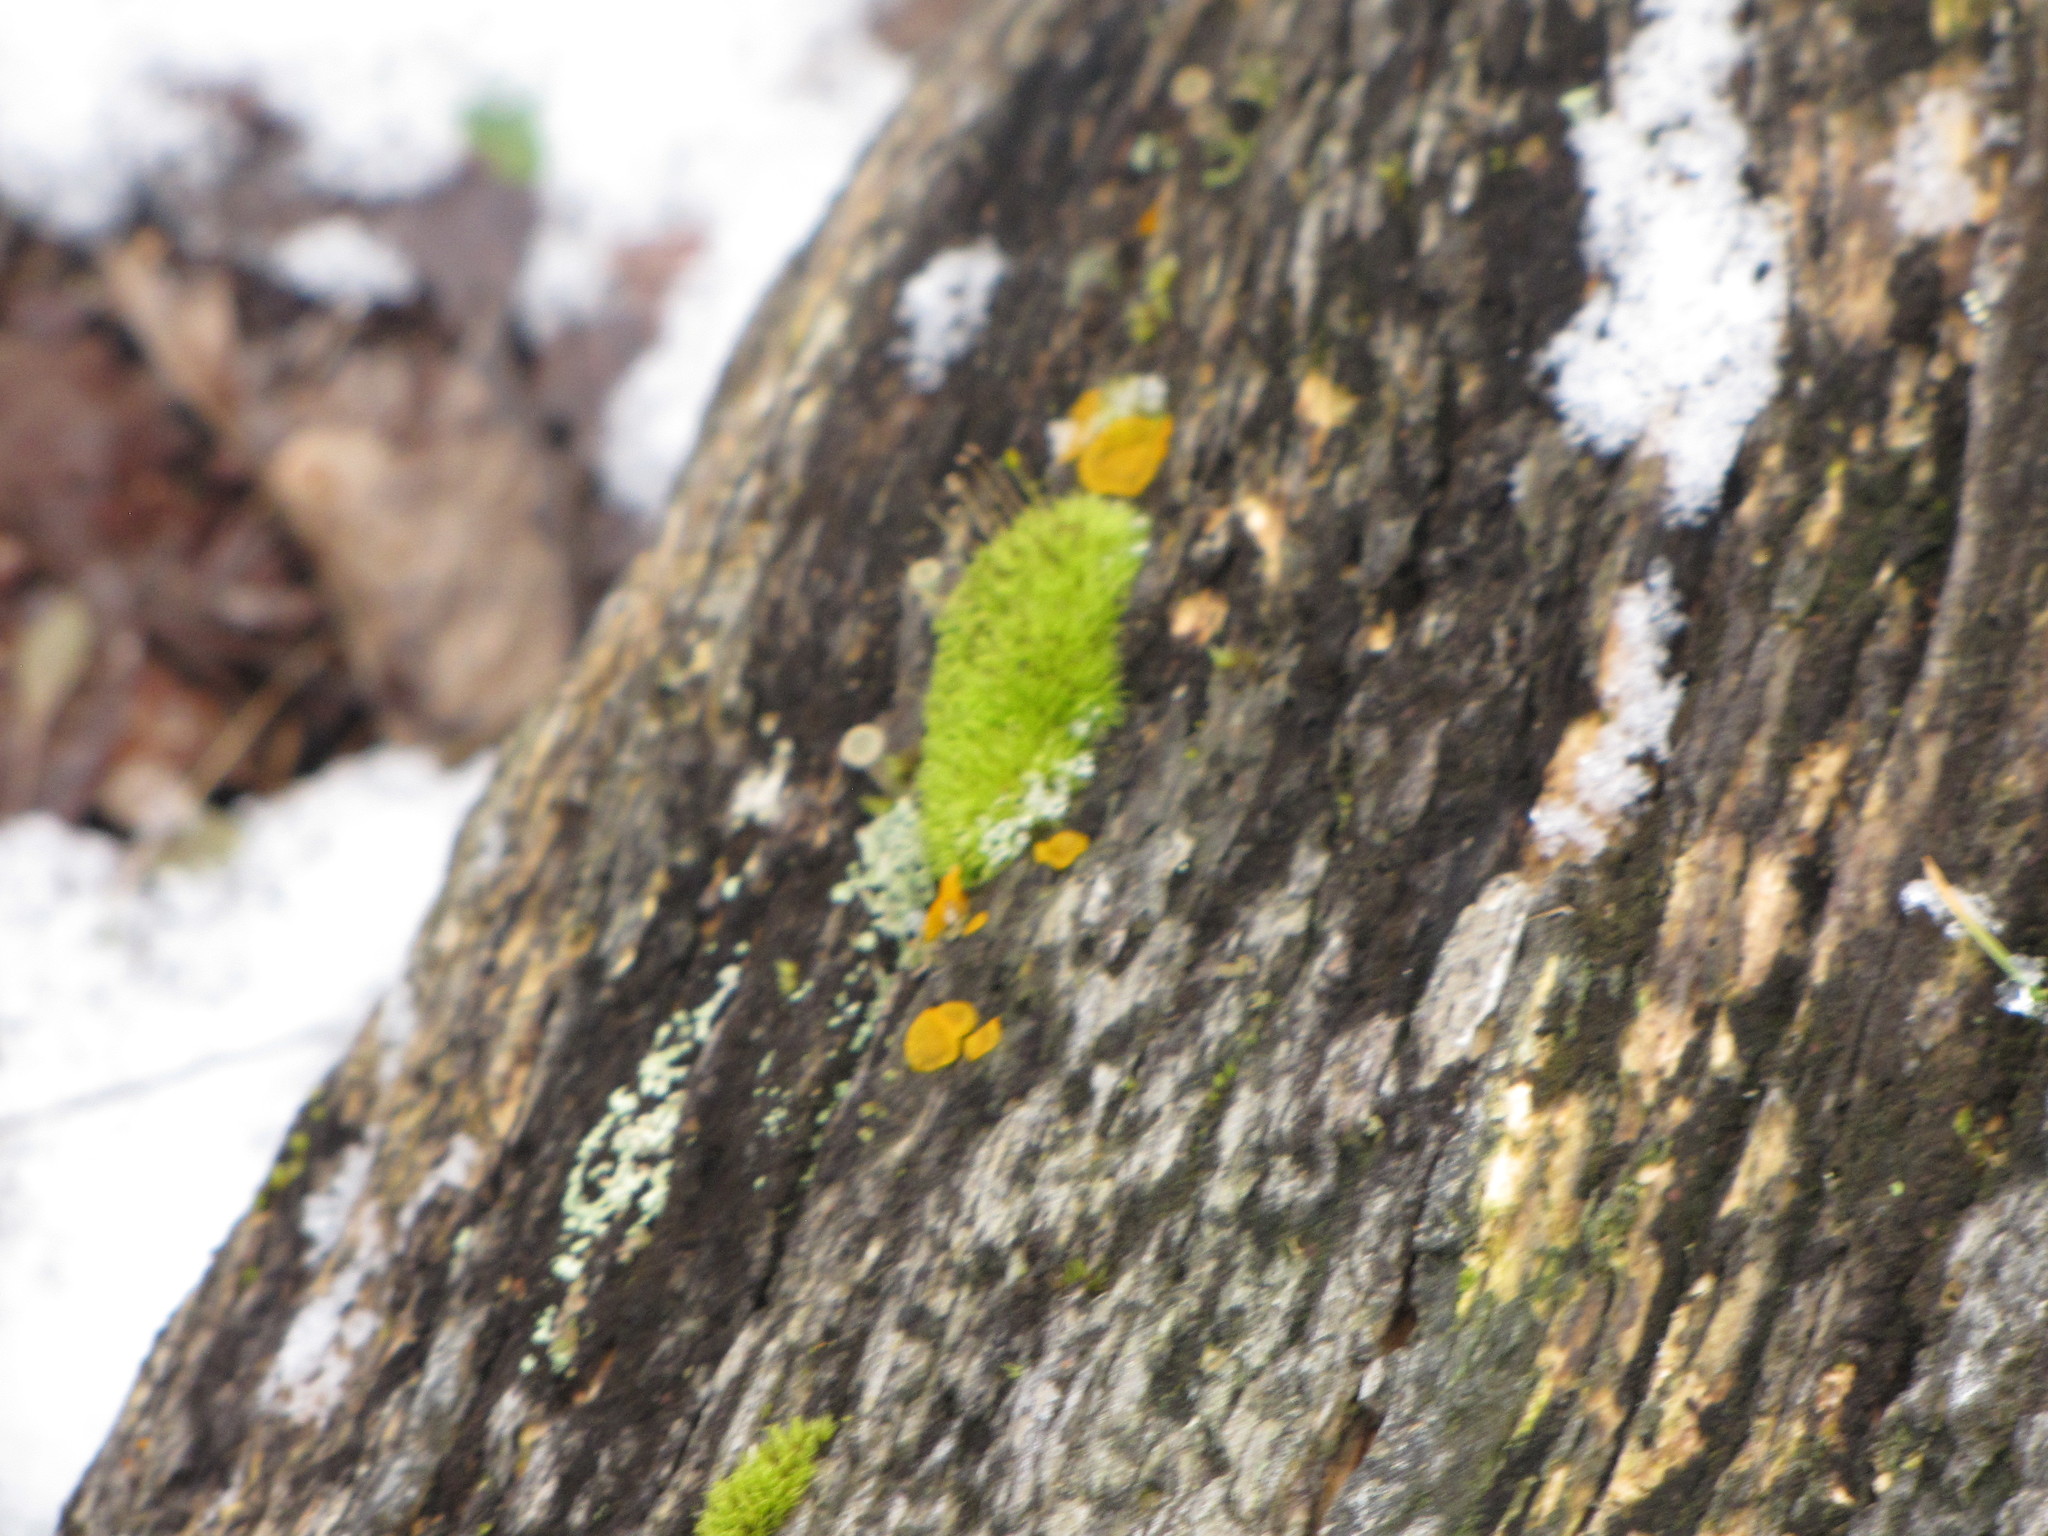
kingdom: Plantae
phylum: Bryophyta
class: Bryopsida
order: Dicranales
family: Rhabdoweisiaceae
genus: Dicranoweisia
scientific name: Dicranoweisia cirrata
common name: Common pincushion
